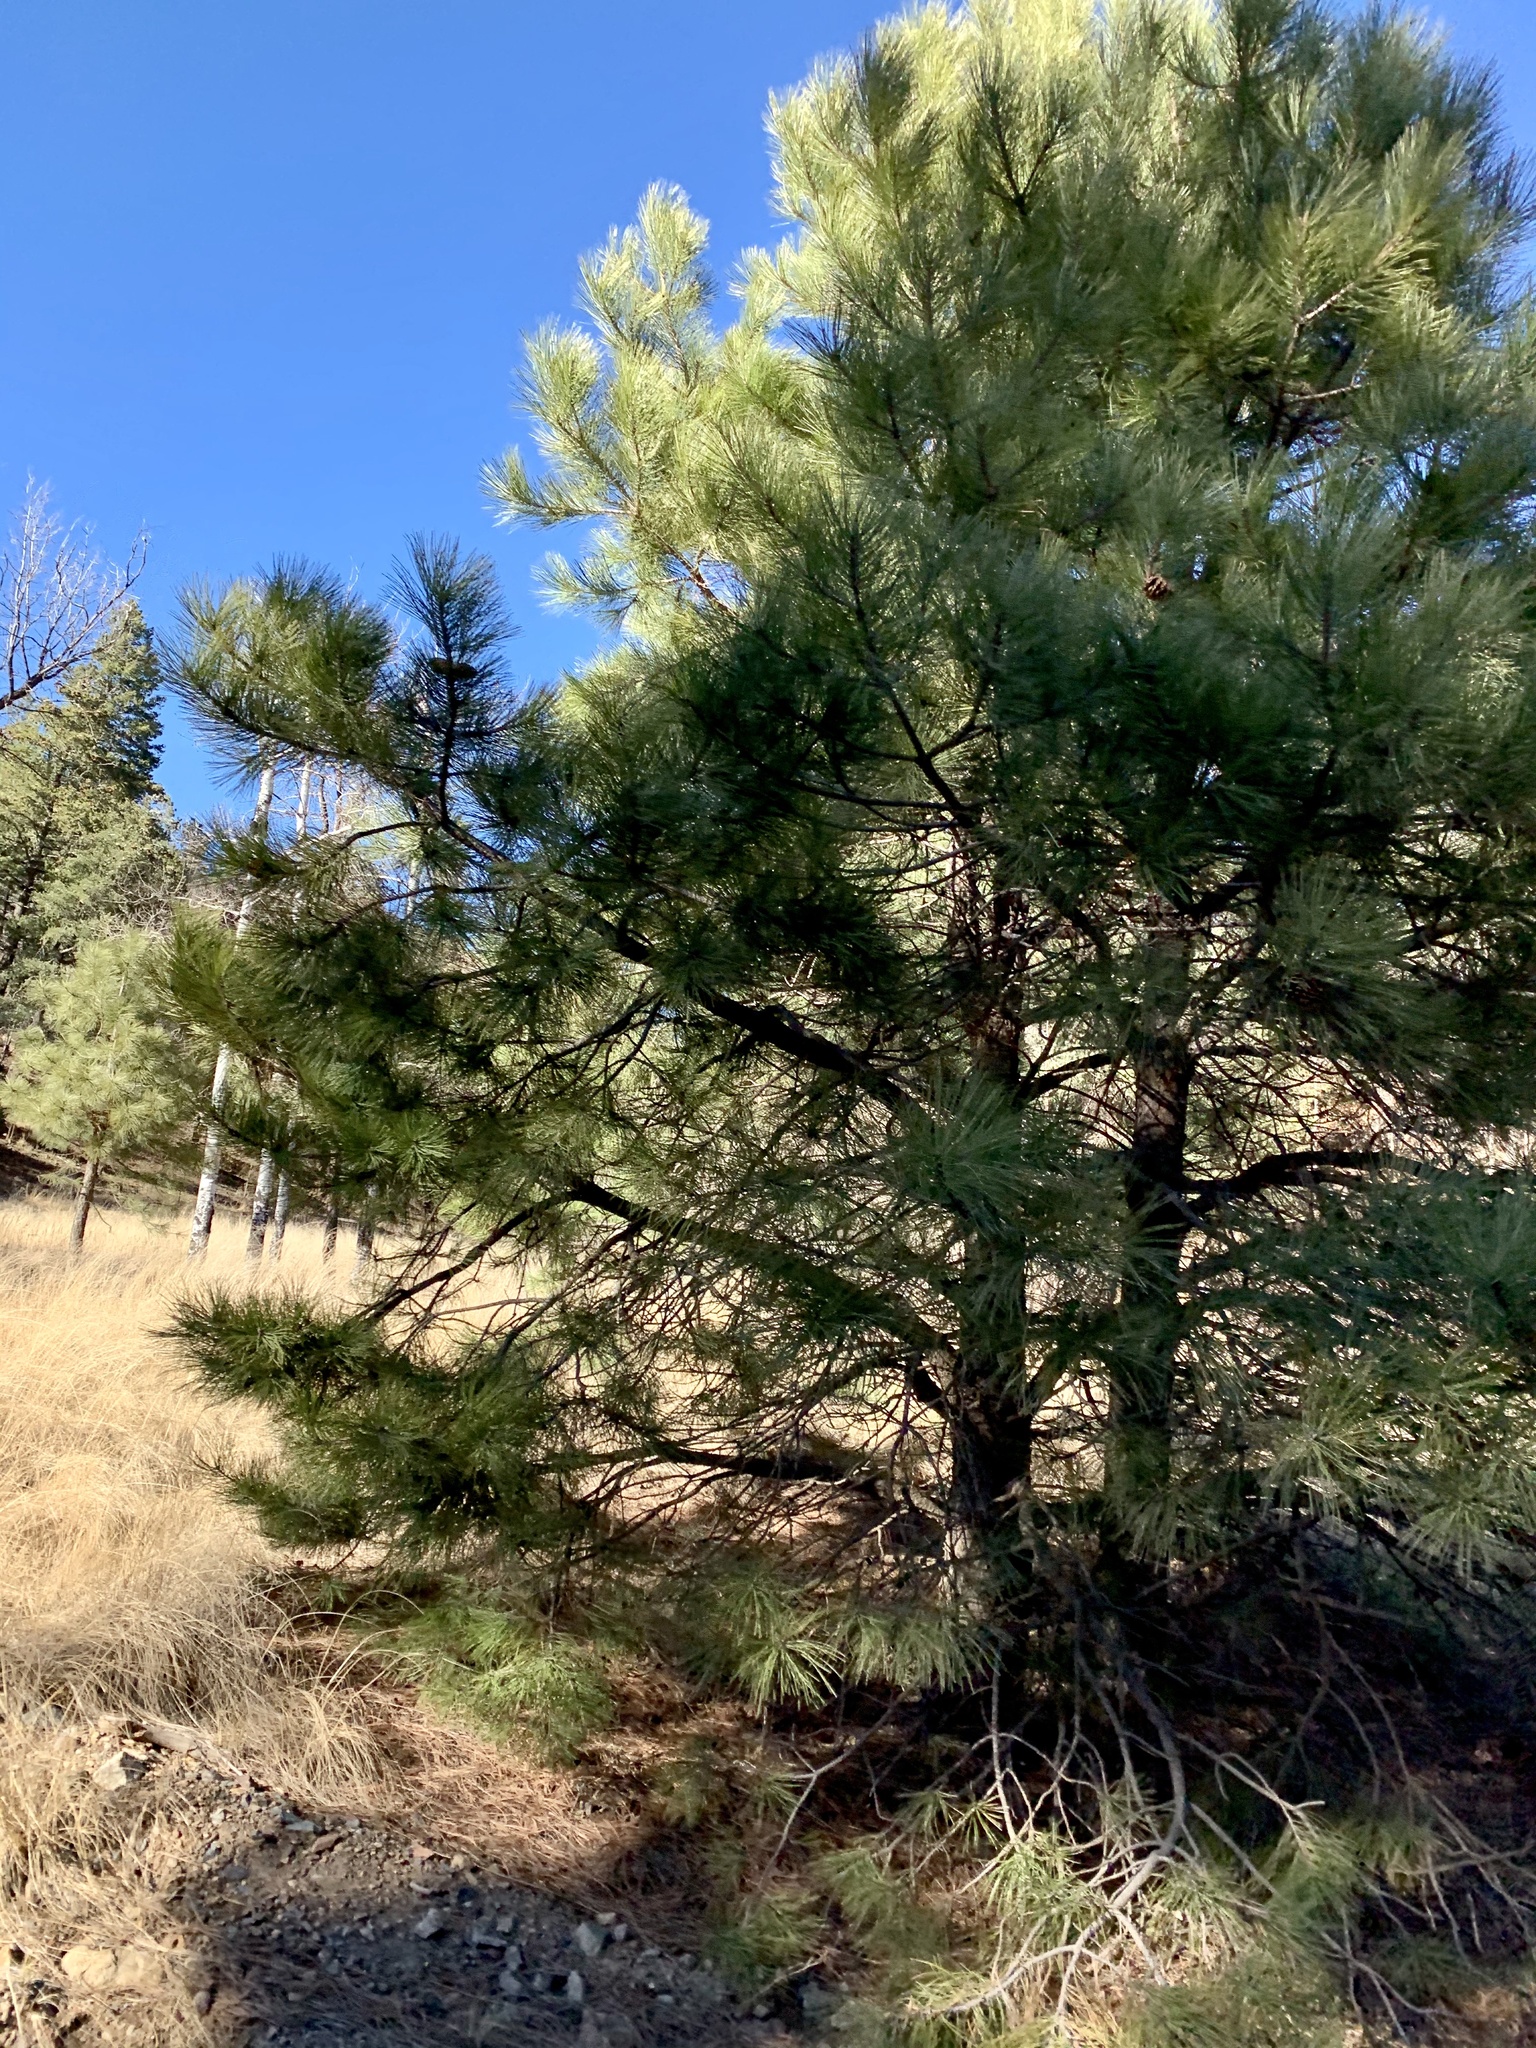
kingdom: Plantae
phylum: Tracheophyta
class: Pinopsida
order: Pinales
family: Pinaceae
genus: Pinus
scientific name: Pinus ponderosa
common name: Western yellow-pine
